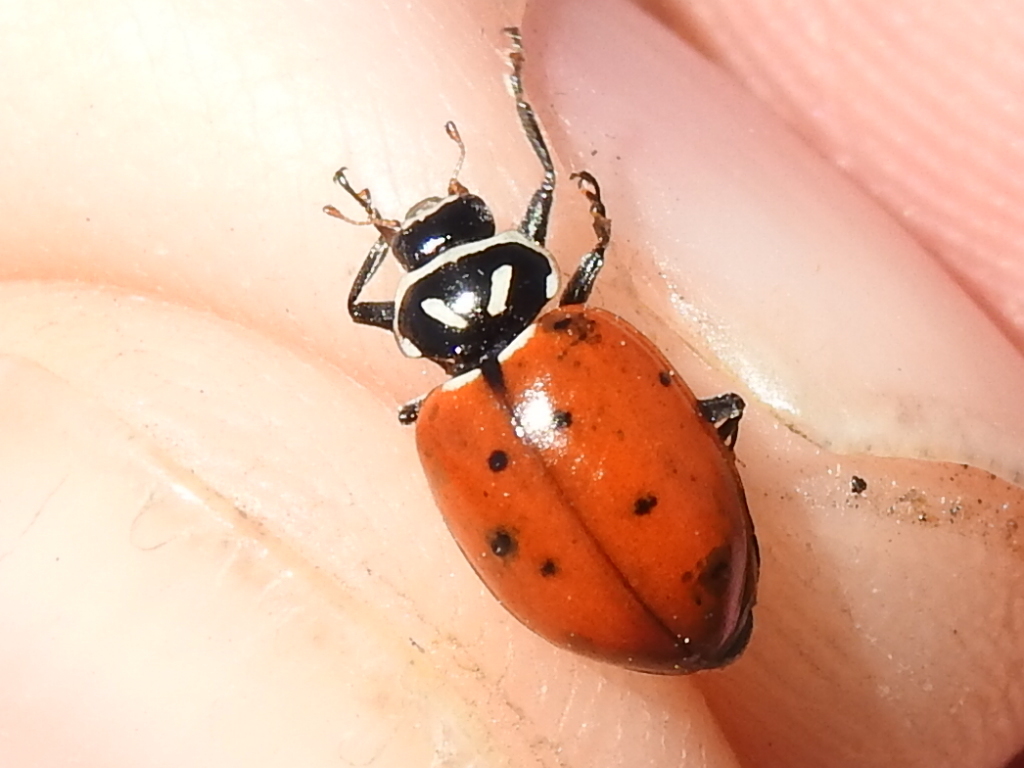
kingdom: Animalia
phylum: Arthropoda
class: Insecta
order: Coleoptera
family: Coccinellidae
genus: Hippodamia
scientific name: Hippodamia convergens
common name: Convergent lady beetle
